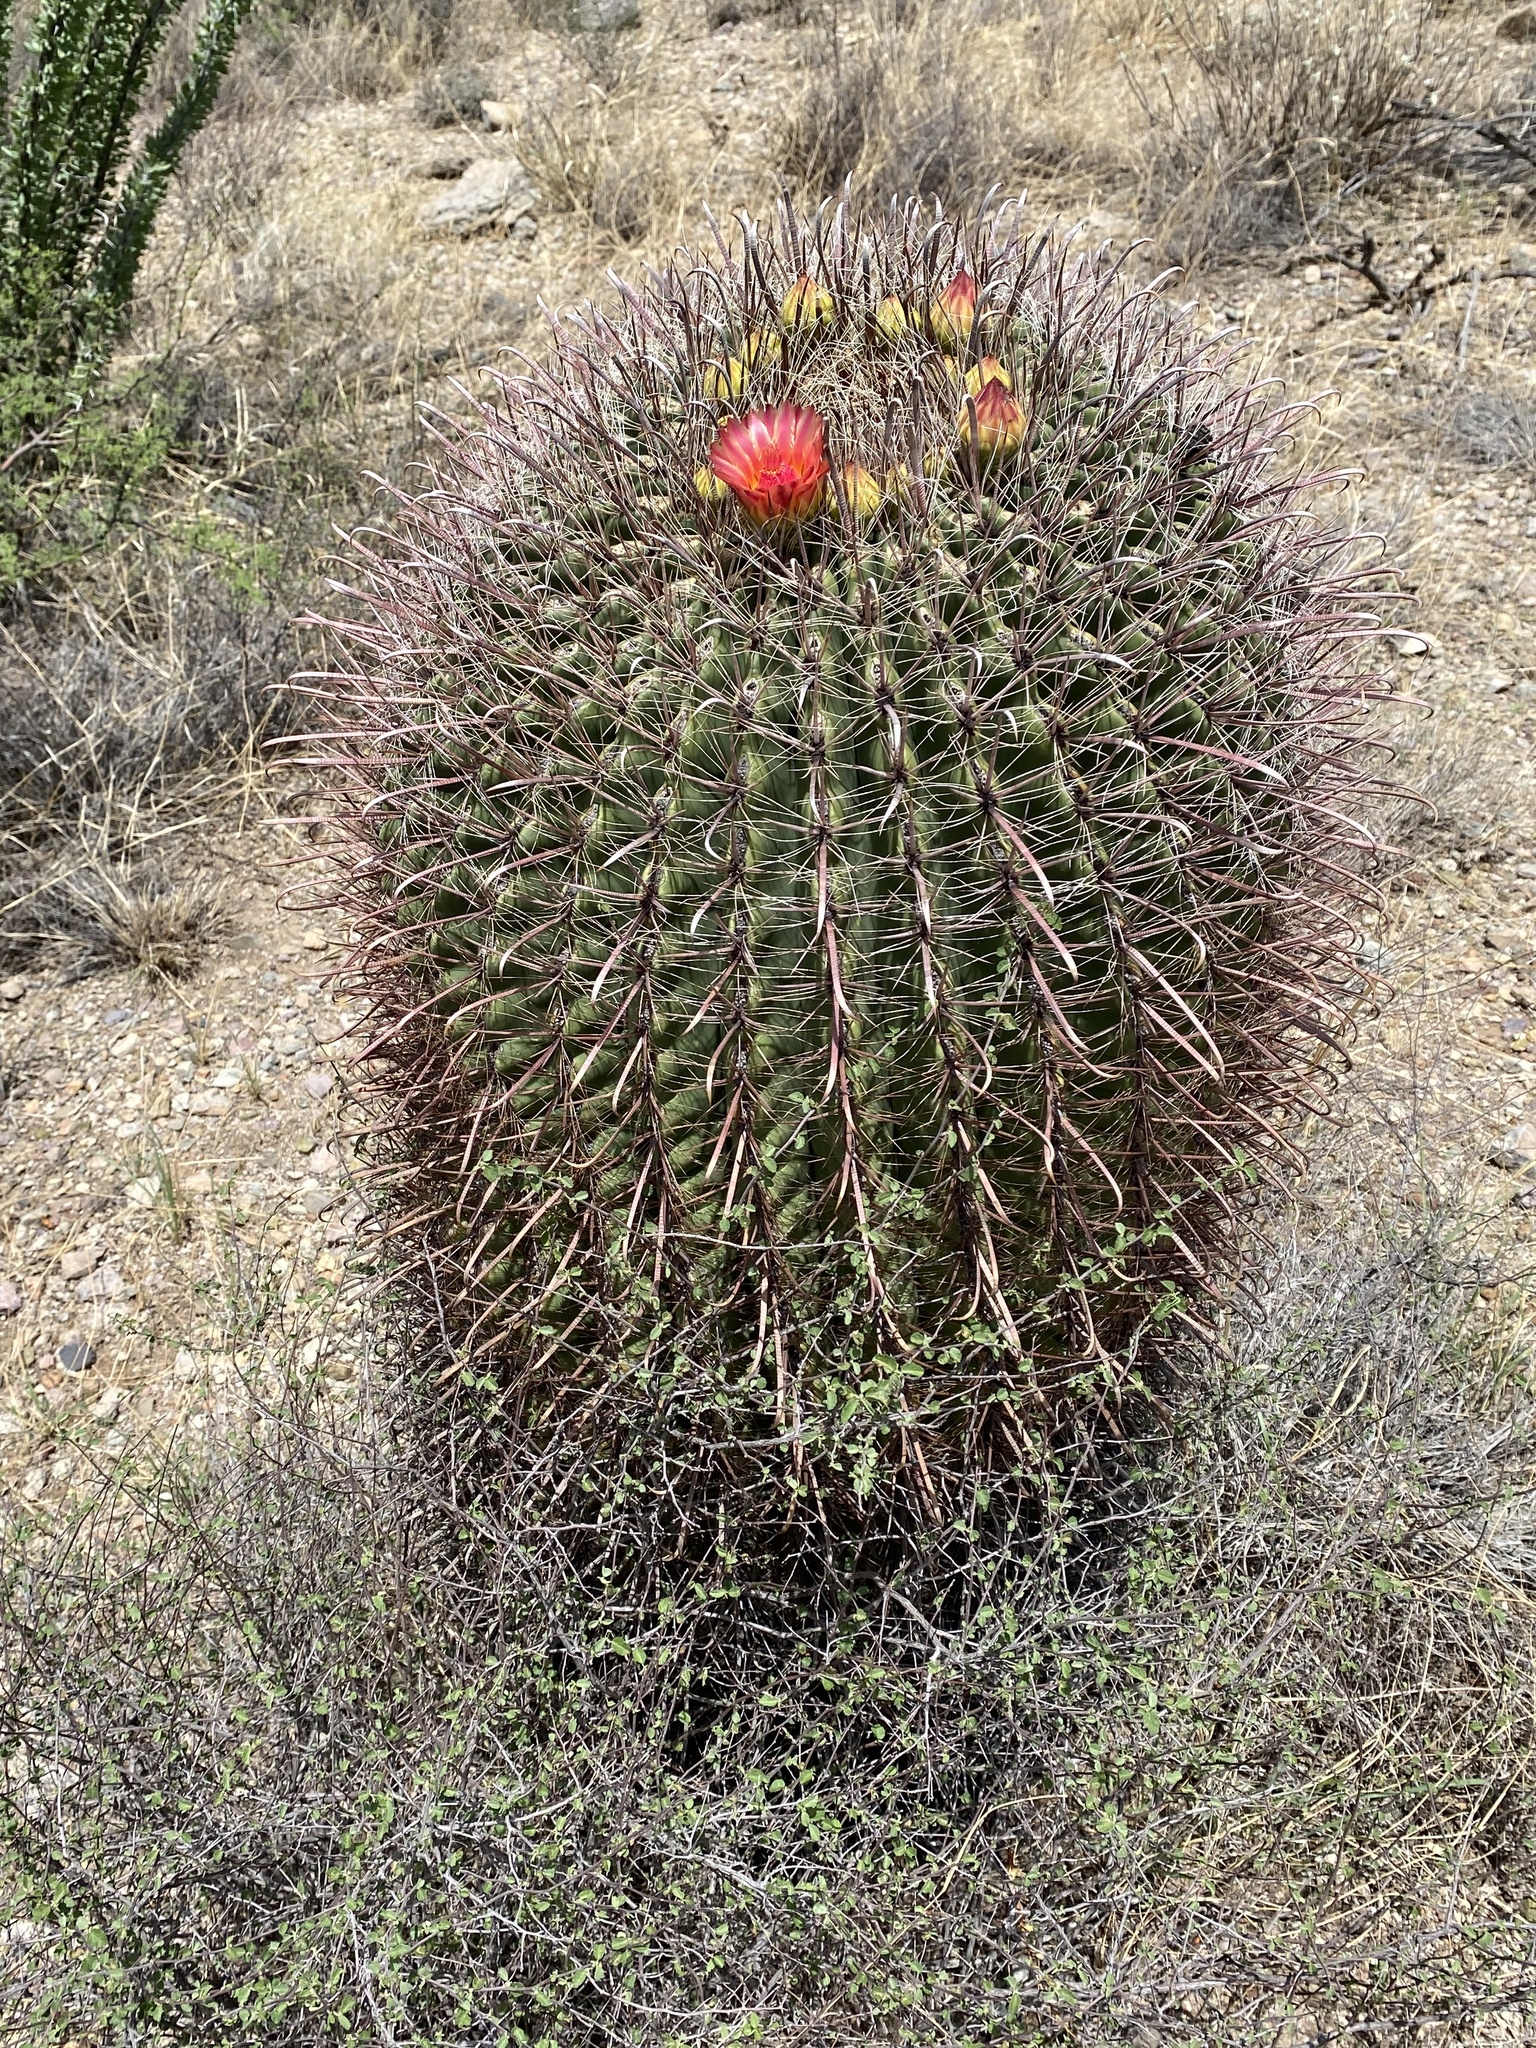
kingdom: Plantae
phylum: Tracheophyta
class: Magnoliopsida
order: Caryophyllales
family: Cactaceae
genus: Ferocactus
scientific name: Ferocactus wislizeni
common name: Candy barrel cactus
